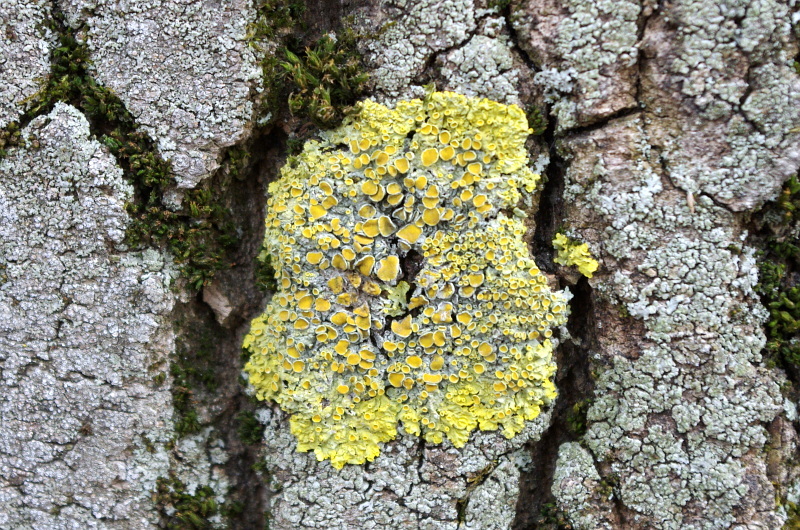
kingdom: Fungi
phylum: Ascomycota
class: Lecanoromycetes
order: Teloschistales
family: Teloschistaceae
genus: Xanthoria
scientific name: Xanthoria parietina
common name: Common orange lichen
